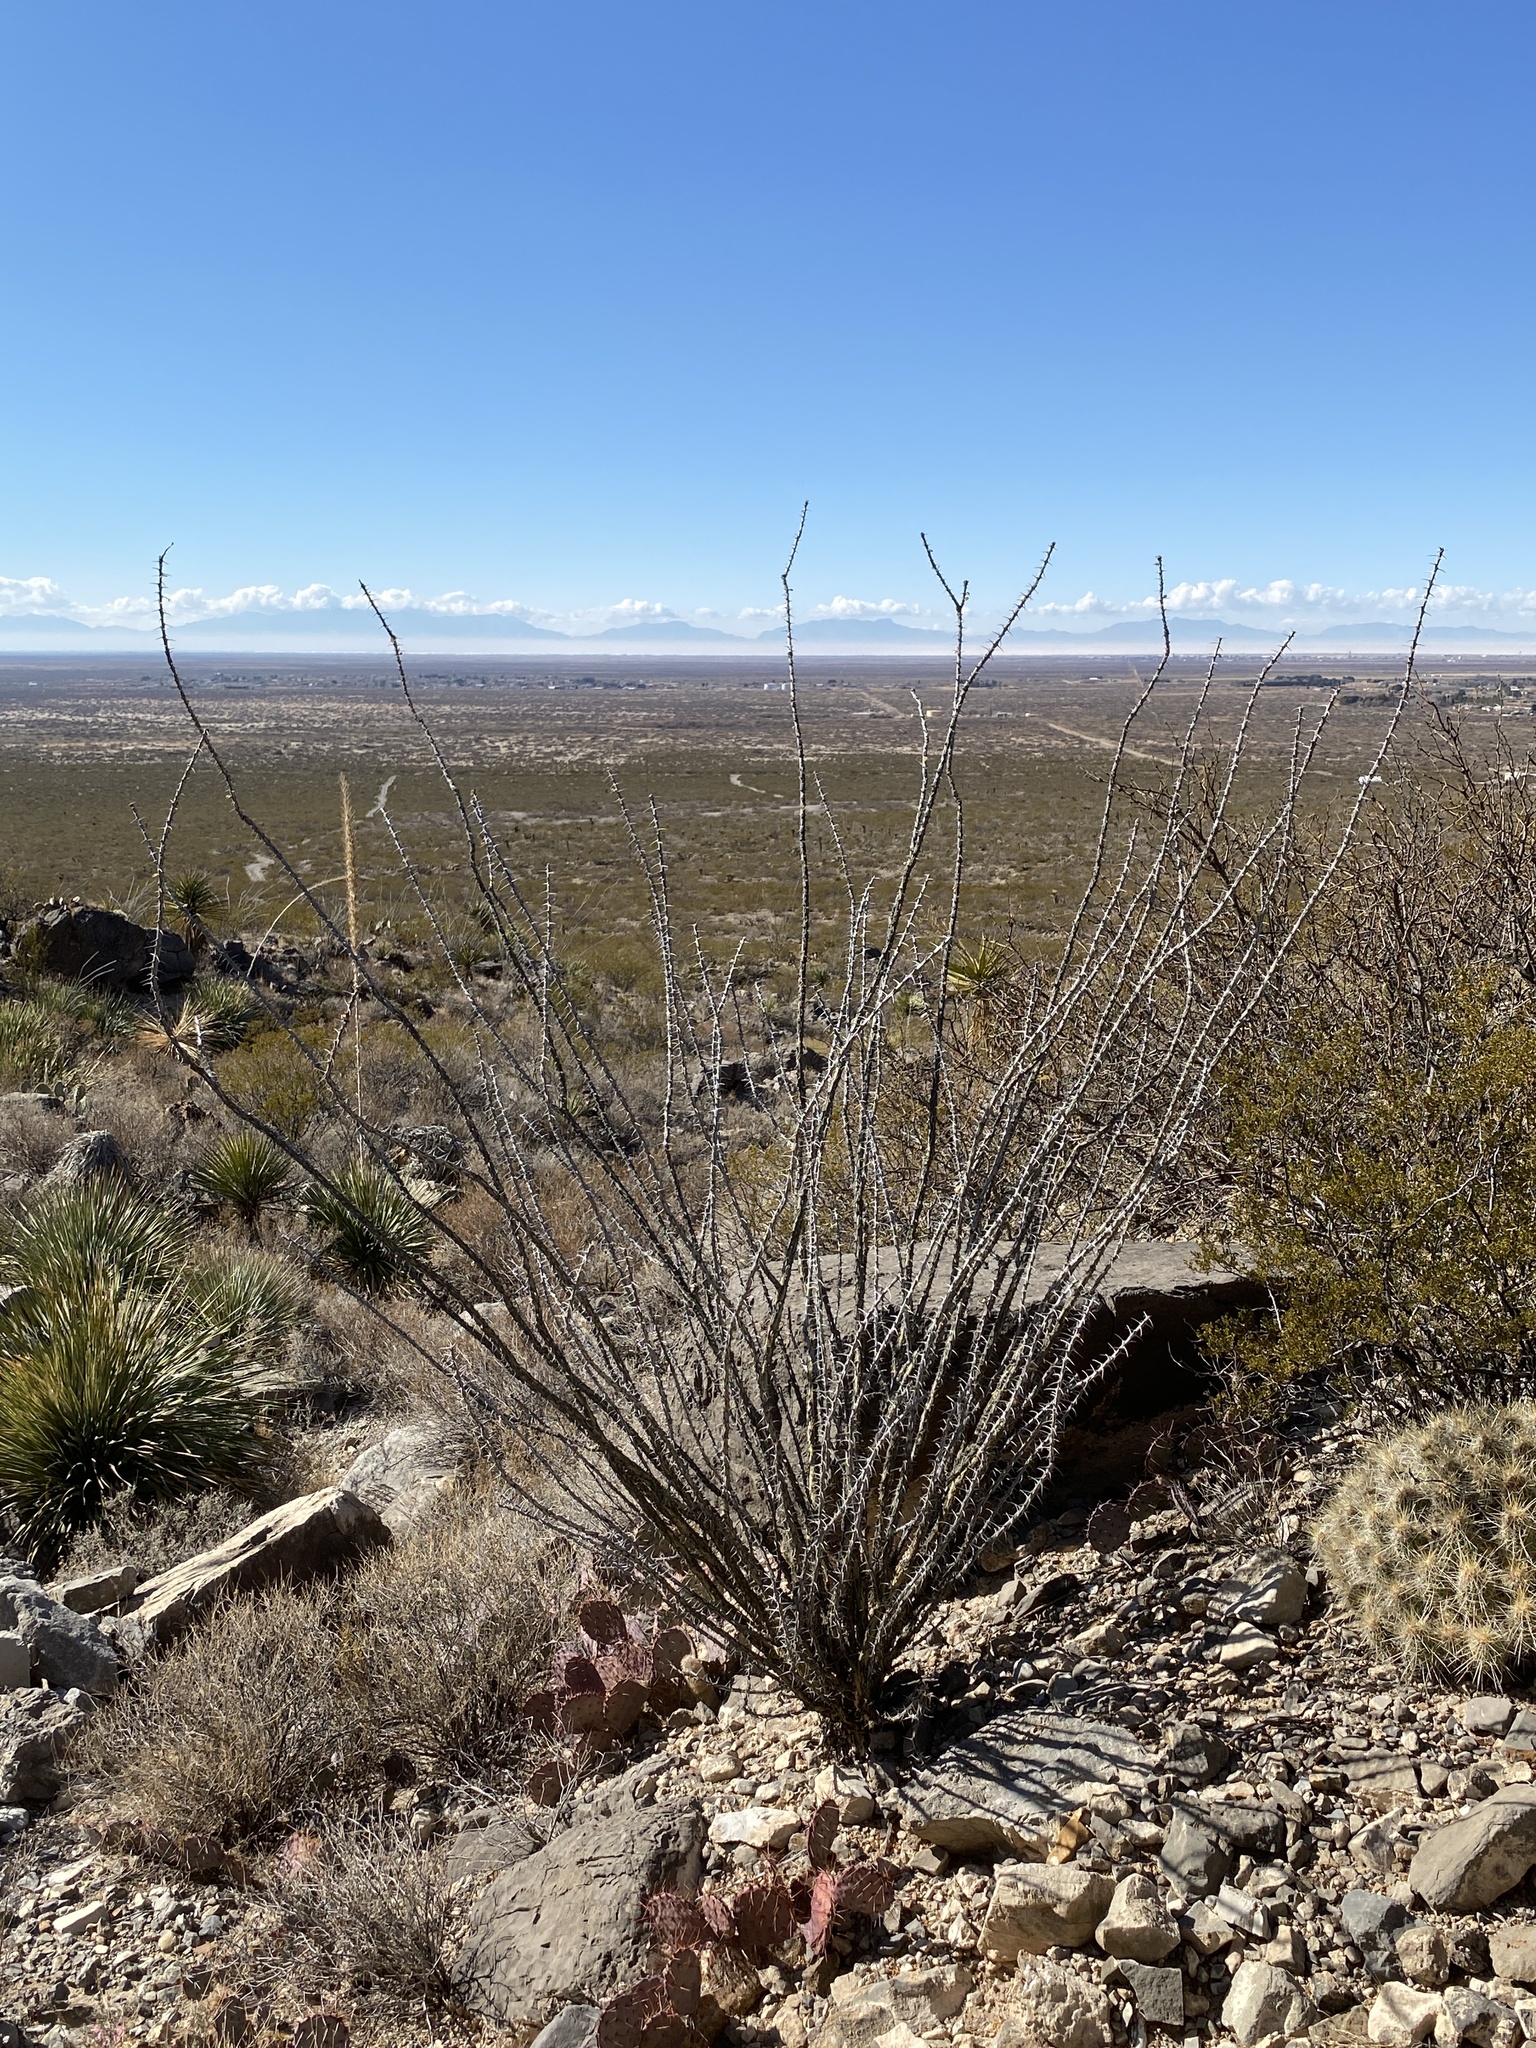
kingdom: Plantae
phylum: Tracheophyta
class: Magnoliopsida
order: Ericales
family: Fouquieriaceae
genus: Fouquieria
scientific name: Fouquieria splendens
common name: Vine-cactus
